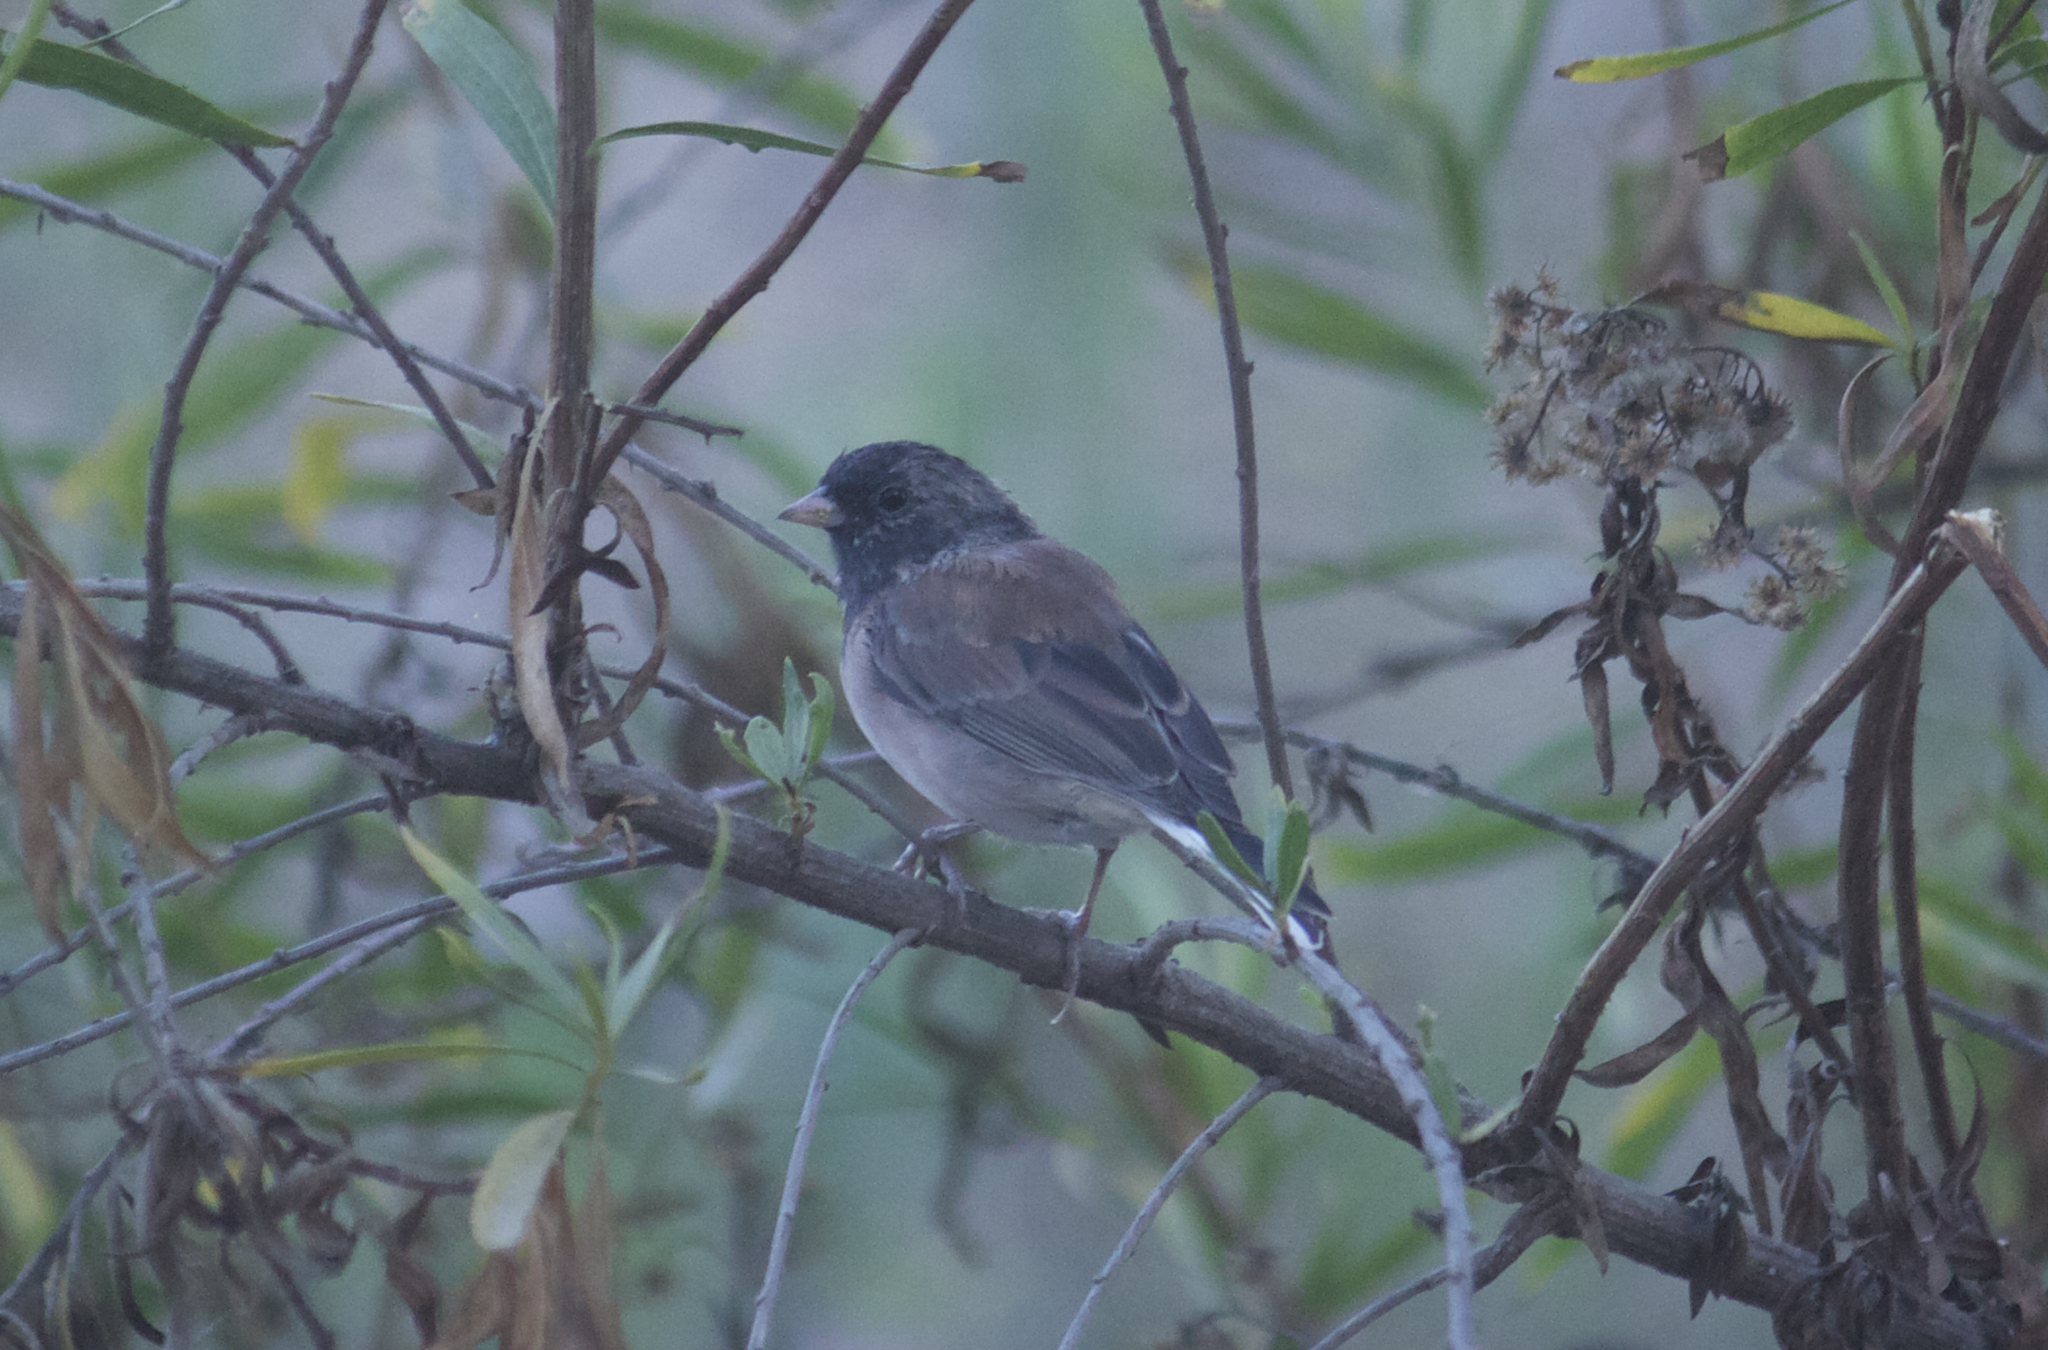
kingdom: Animalia
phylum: Chordata
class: Aves
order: Passeriformes
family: Passerellidae
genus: Junco
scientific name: Junco hyemalis
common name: Dark-eyed junco
